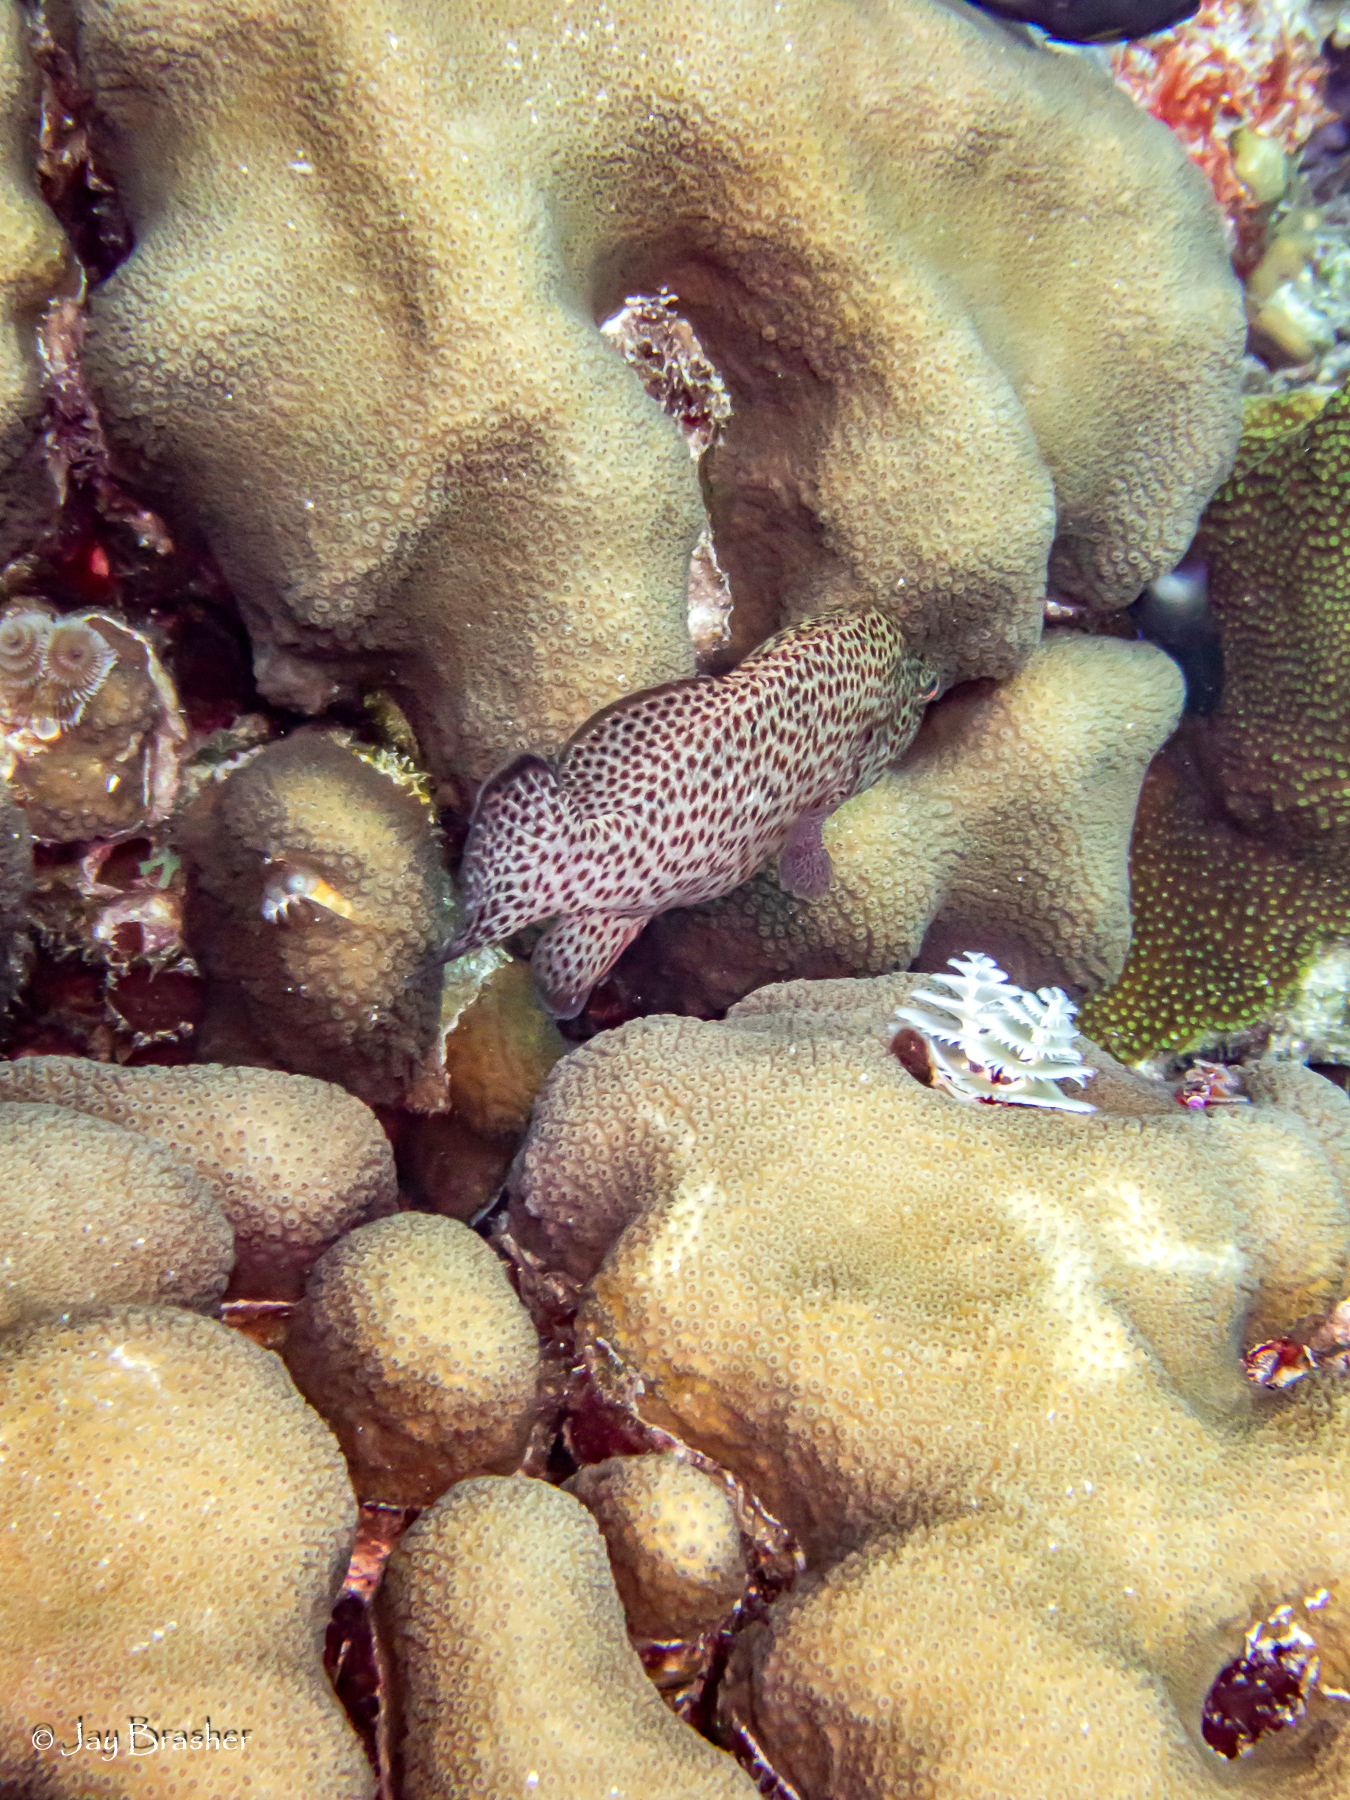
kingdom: Animalia
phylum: Chordata
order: Perciformes
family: Serranidae
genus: Cephalopholis
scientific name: Cephalopholis cruentata
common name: Graysby
